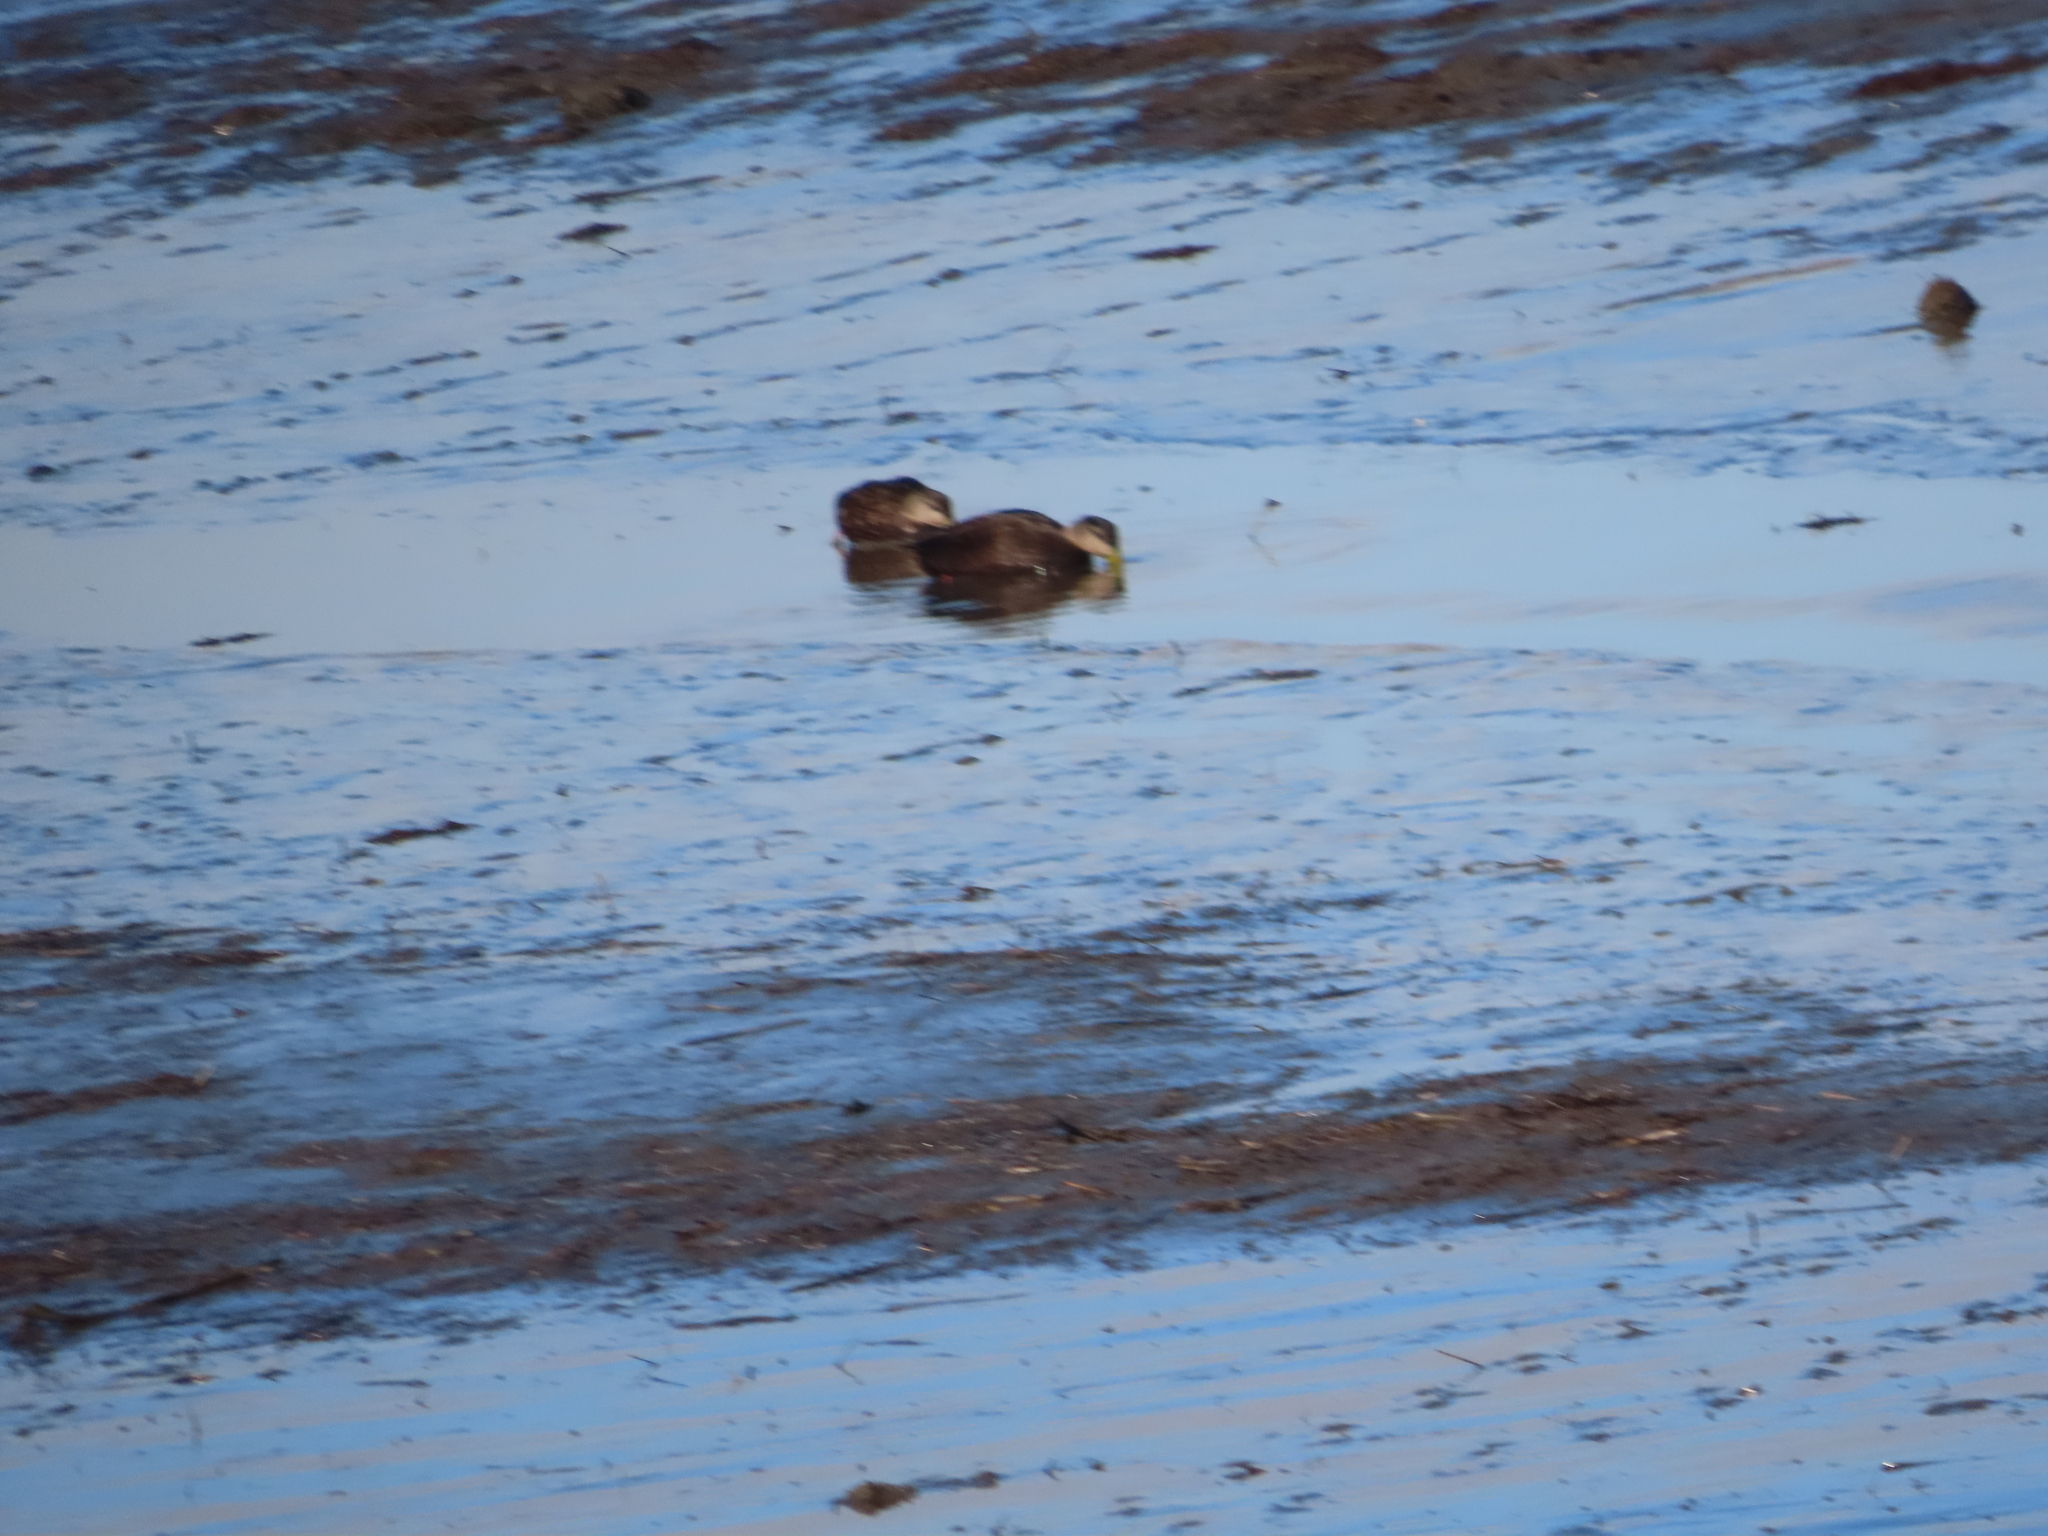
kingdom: Animalia
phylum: Chordata
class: Aves
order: Anseriformes
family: Anatidae
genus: Anas
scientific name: Anas rubripes
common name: American black duck
